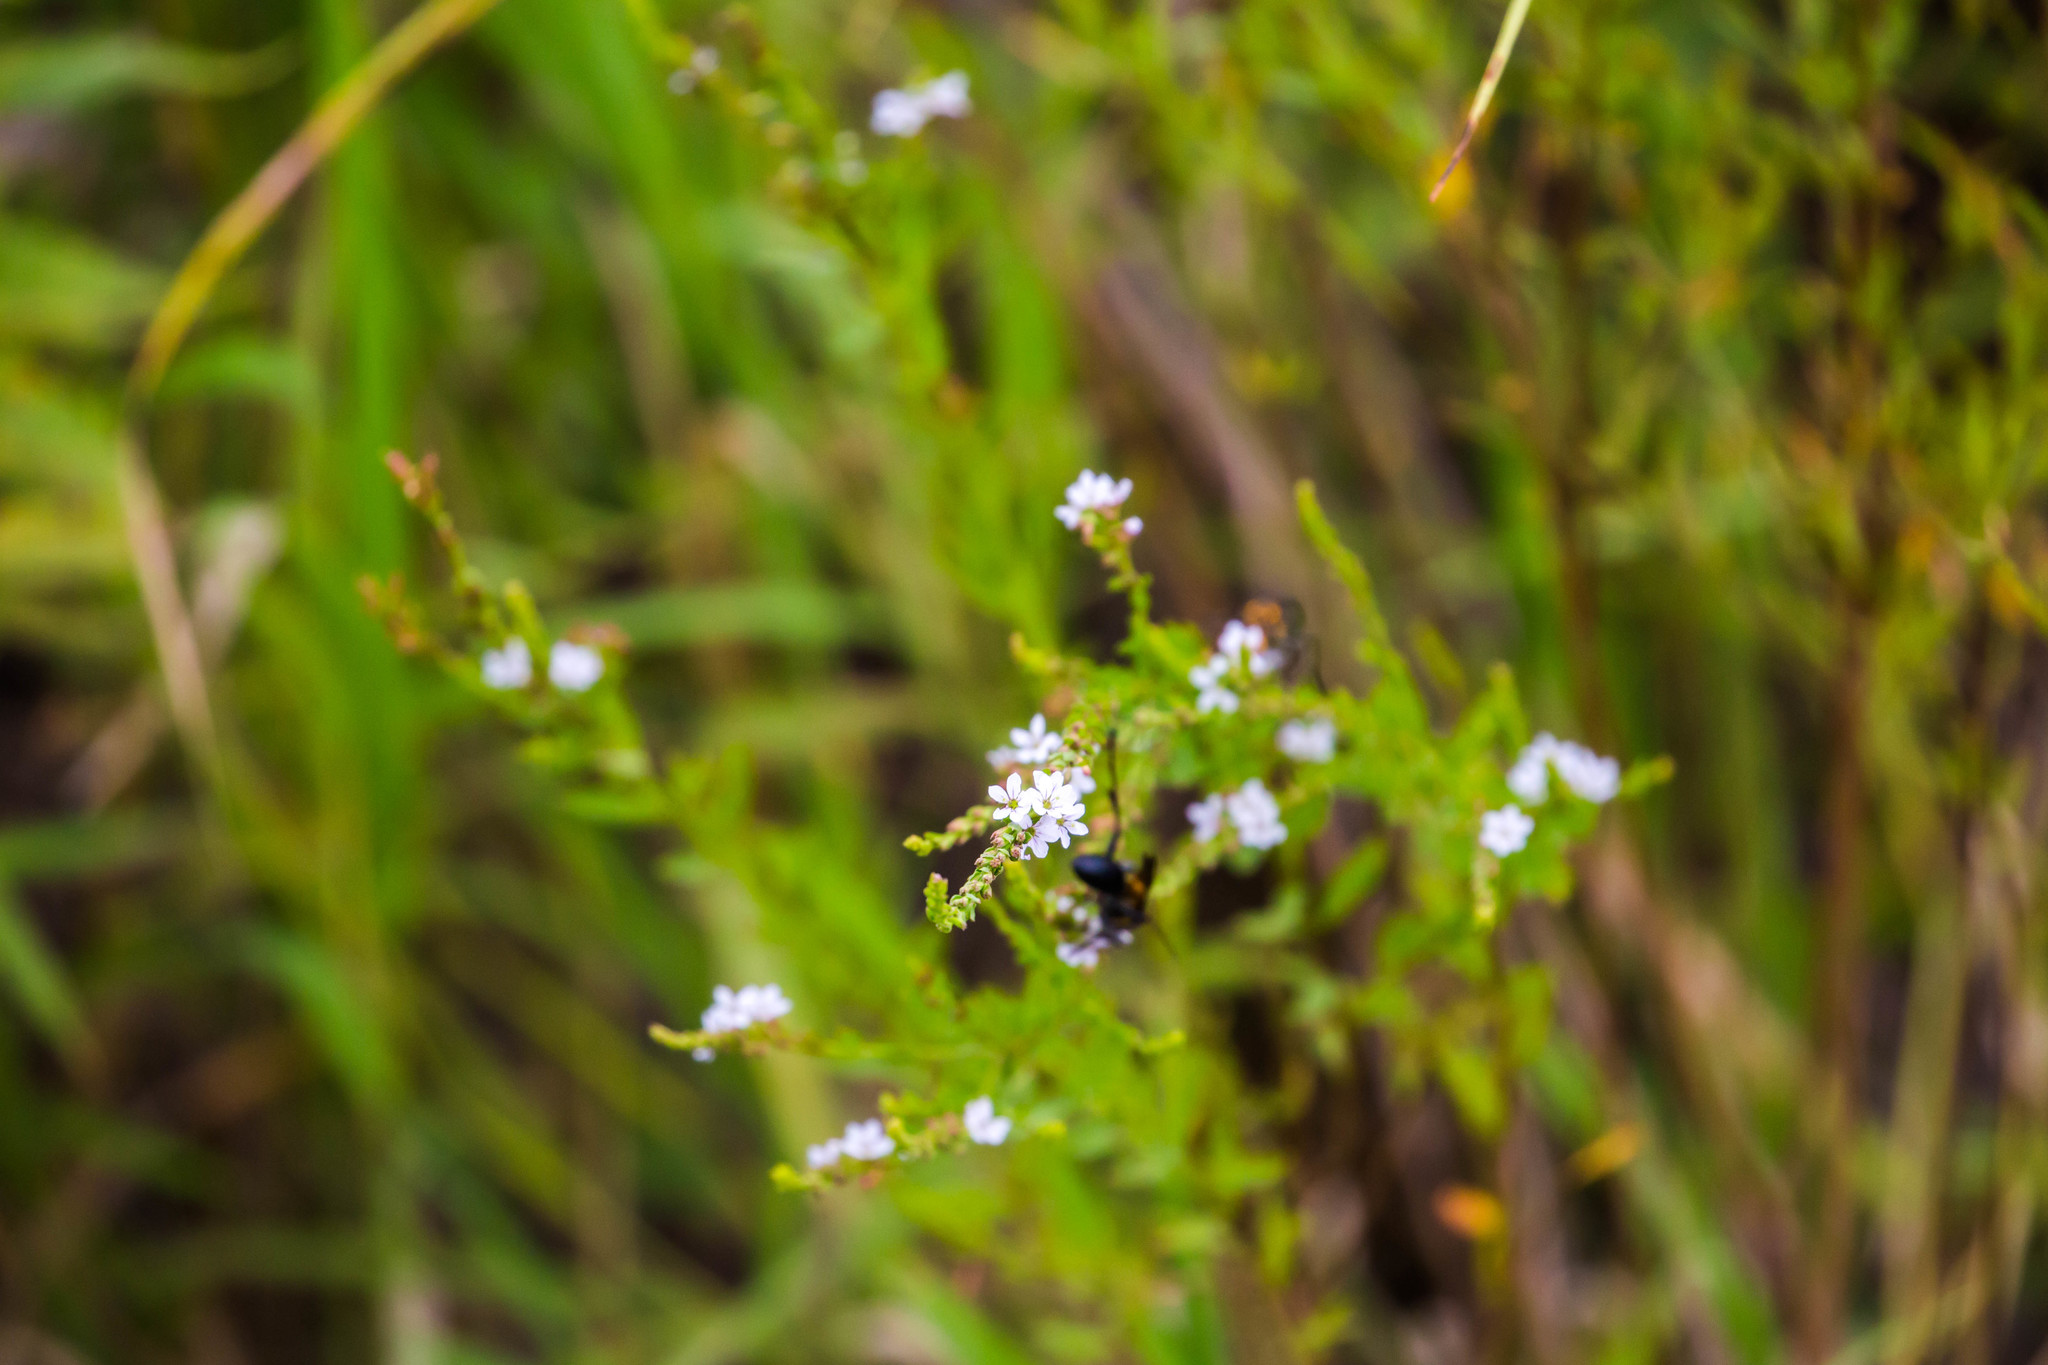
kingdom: Plantae
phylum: Tracheophyta
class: Magnoliopsida
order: Lamiales
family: Verbenaceae
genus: Verbena
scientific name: Verbena urticifolia
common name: Nettle-leaved vervain
